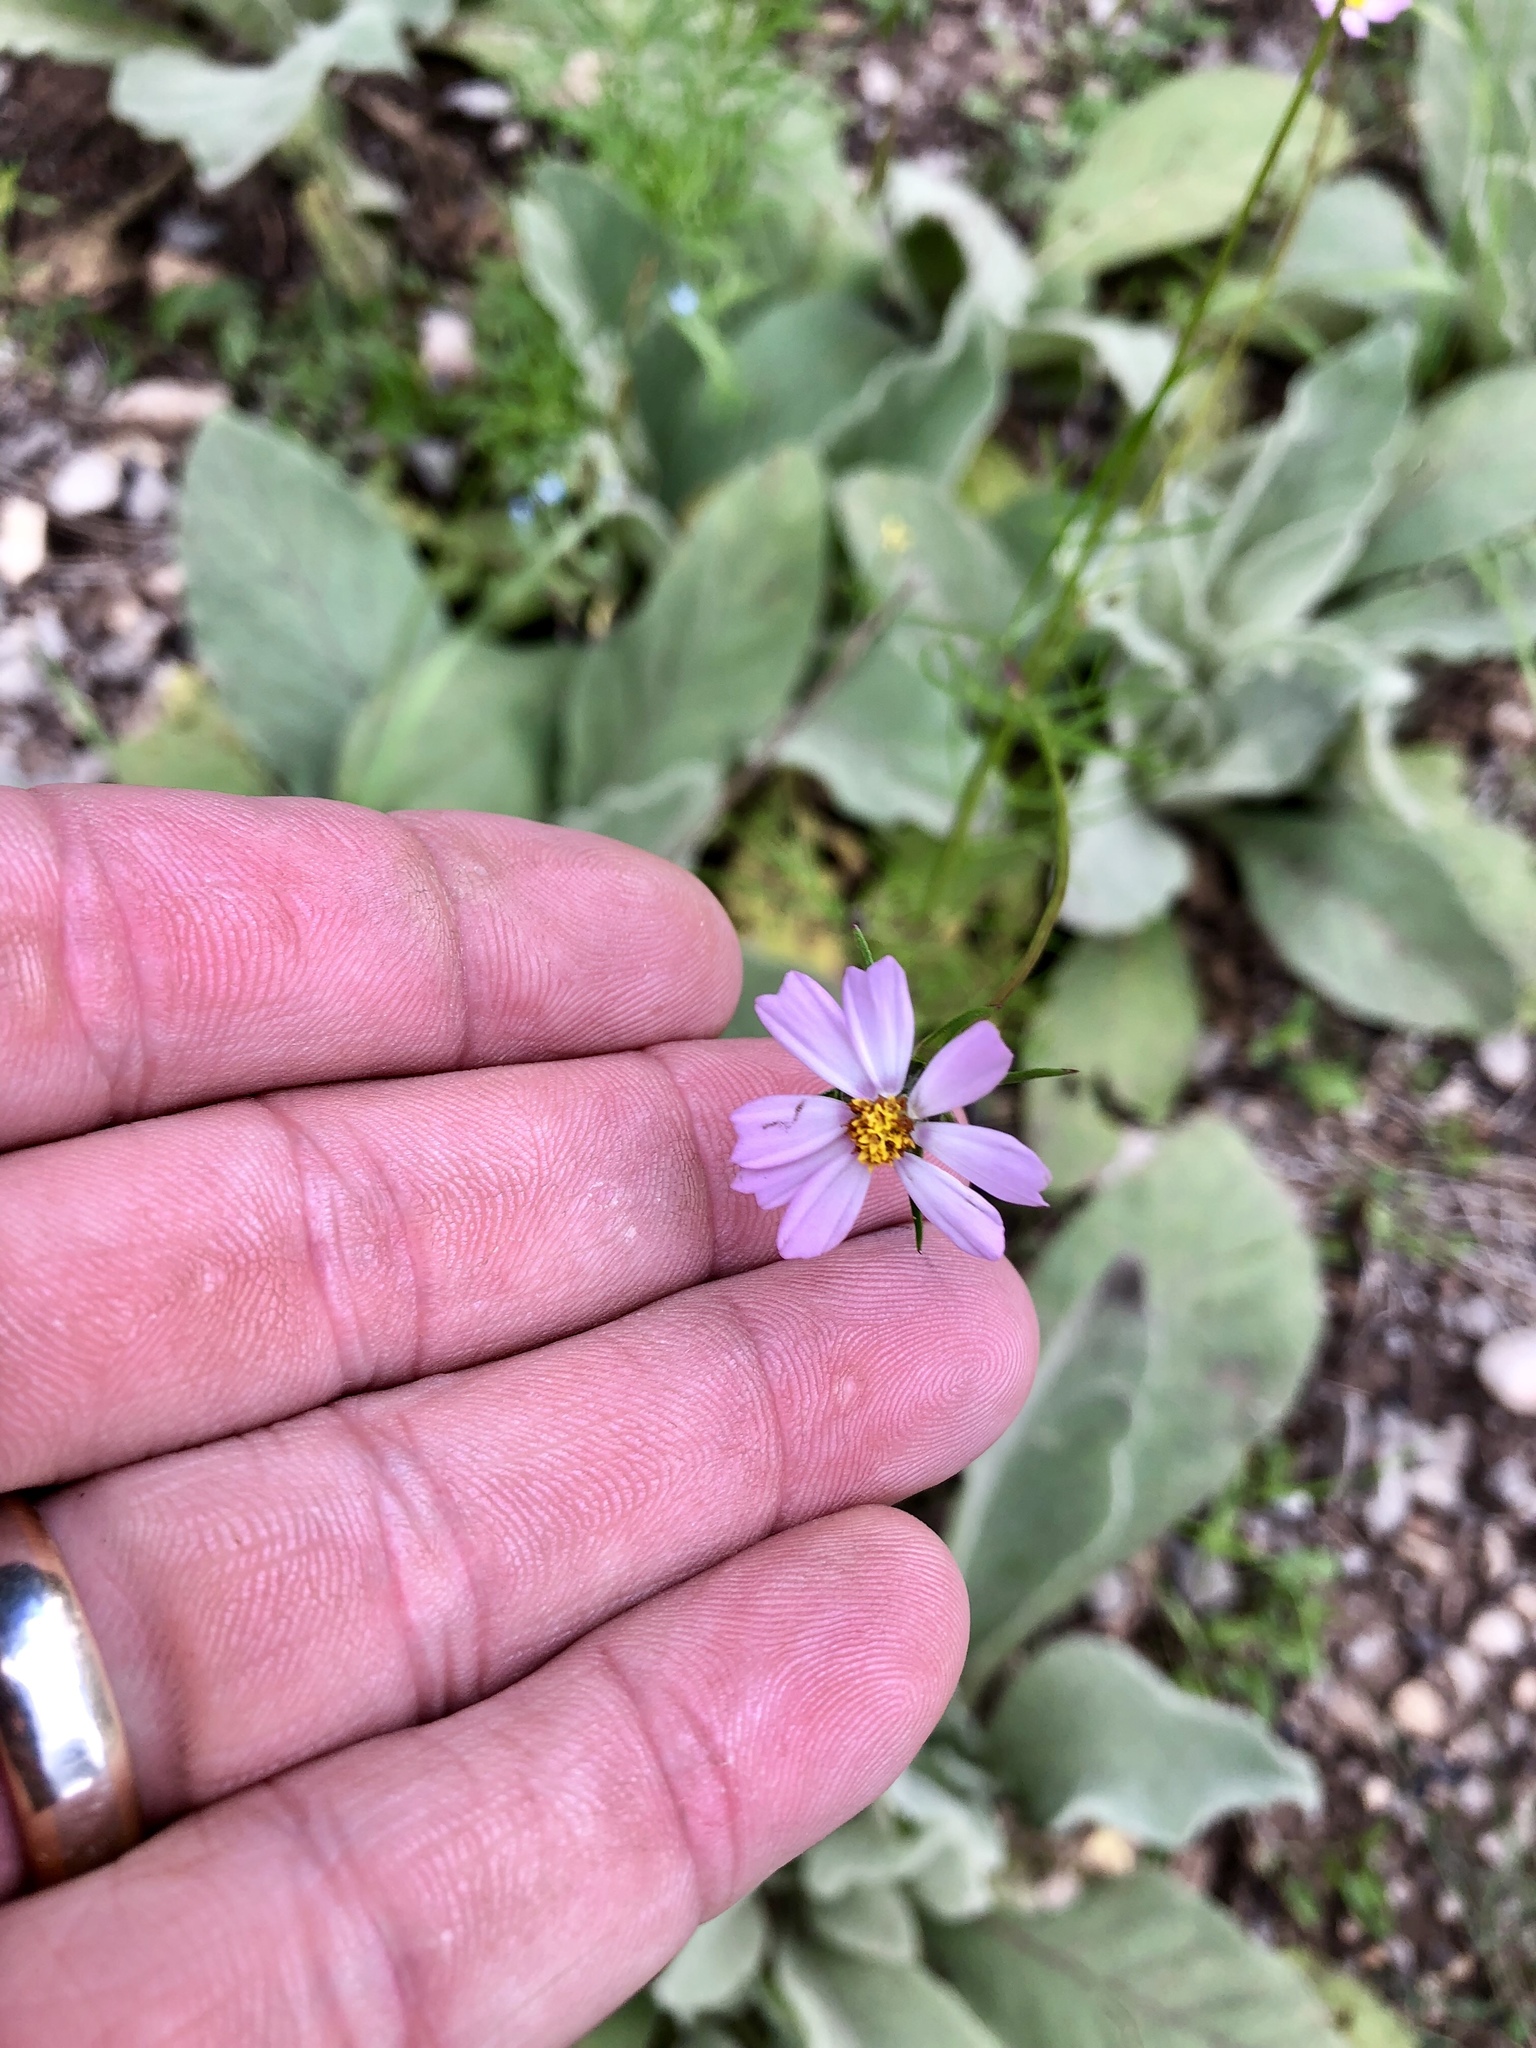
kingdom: Plantae
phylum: Tracheophyta
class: Magnoliopsida
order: Asterales
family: Asteraceae
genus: Cosmos
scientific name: Cosmos parviflorus
